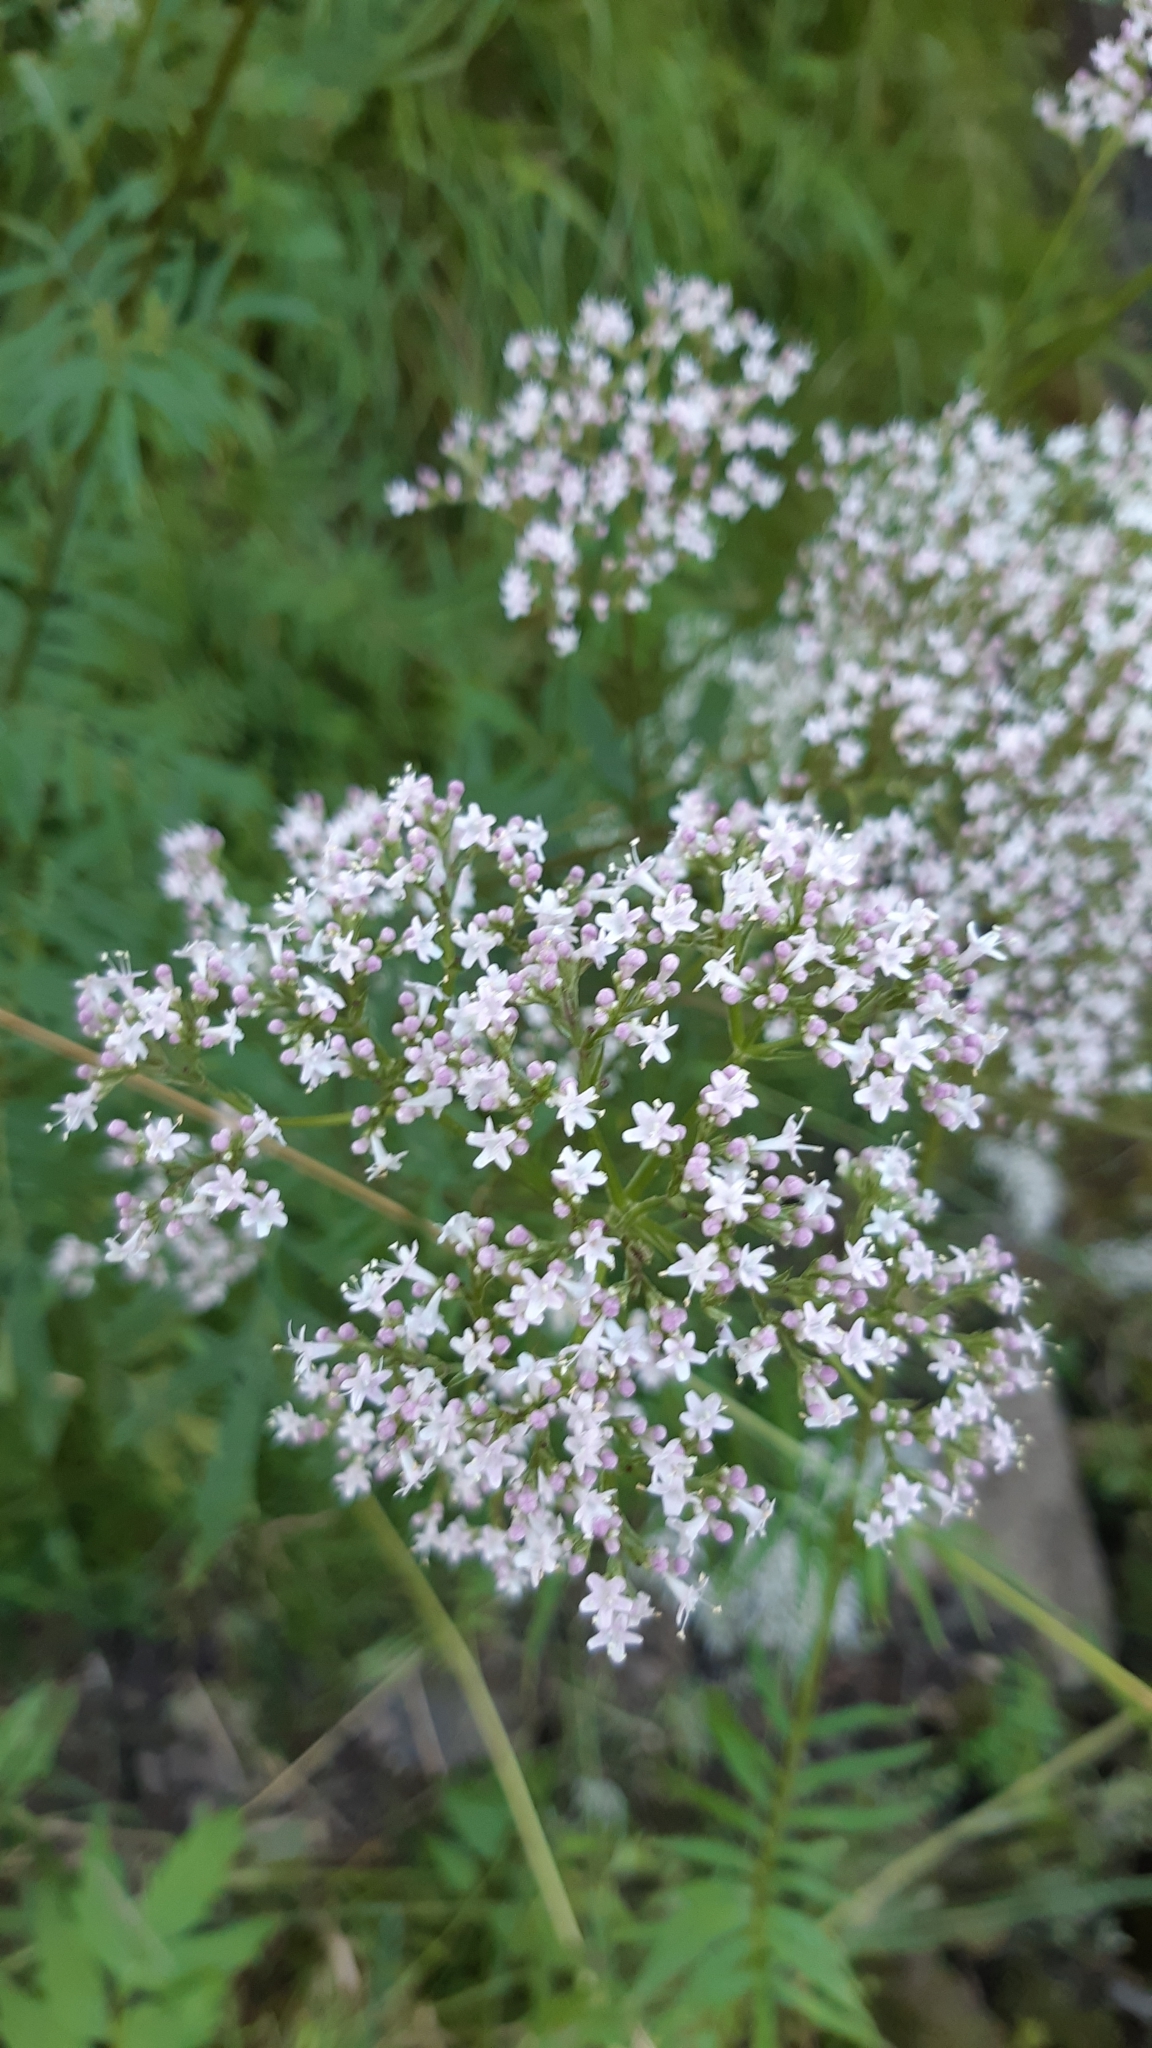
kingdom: Plantae
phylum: Tracheophyta
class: Magnoliopsida
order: Dipsacales
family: Caprifoliaceae
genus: Valeriana
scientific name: Valeriana officinalis
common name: Common valerian
